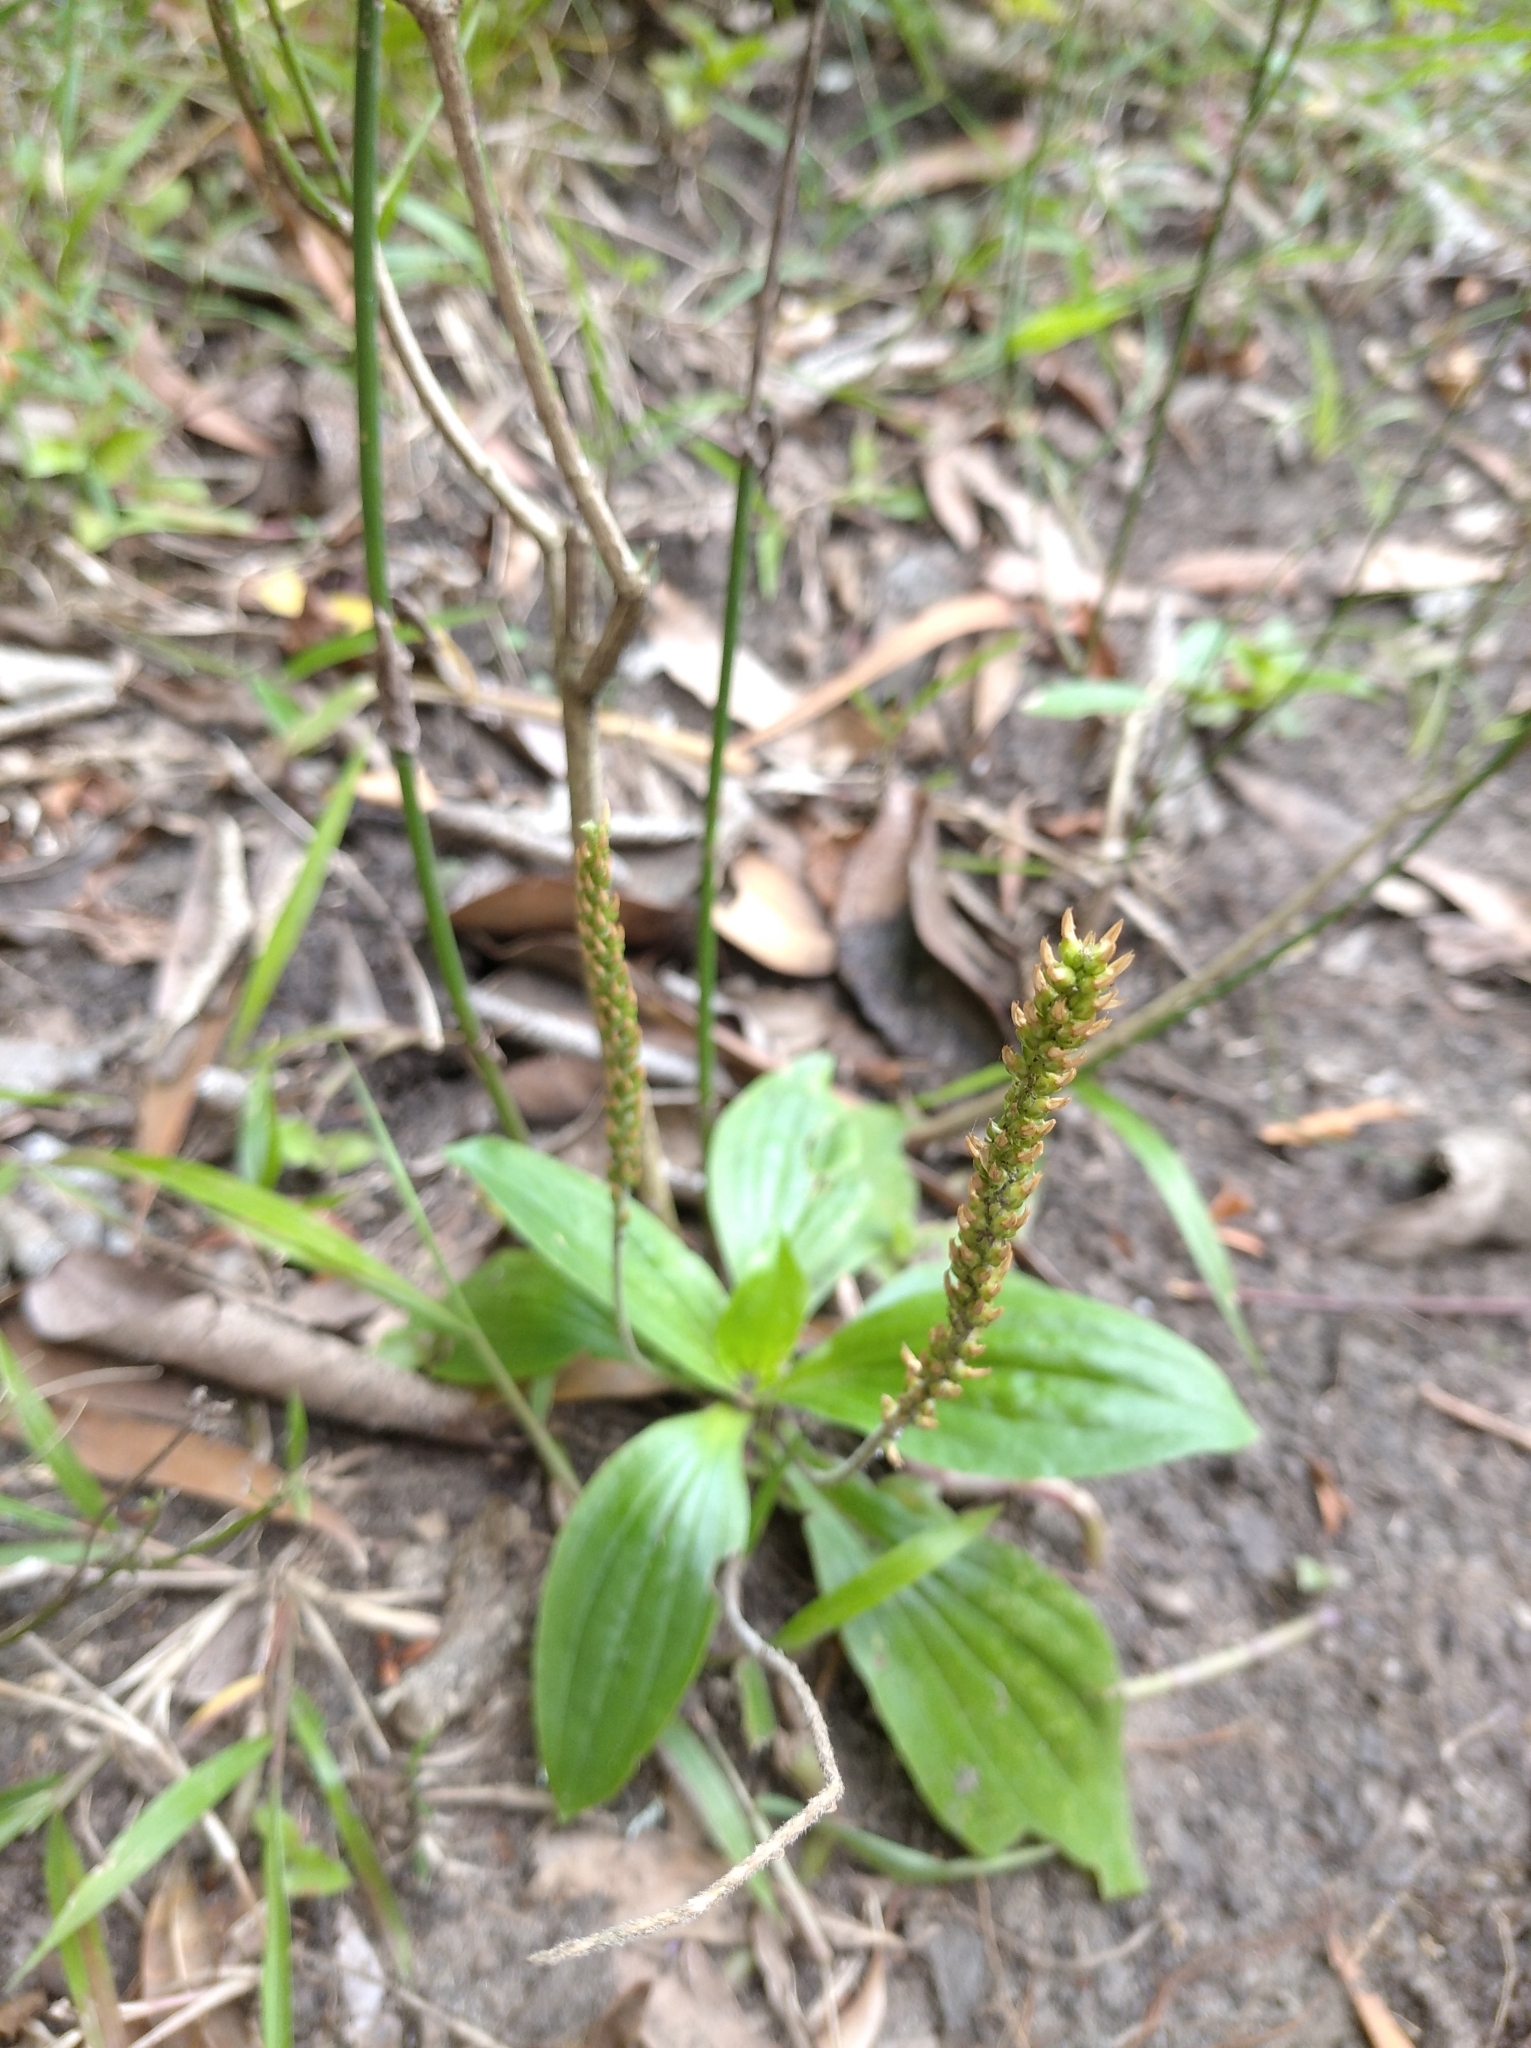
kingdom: Plantae
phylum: Tracheophyta
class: Magnoliopsida
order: Lamiales
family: Plantaginaceae
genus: Plantago
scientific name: Plantago australis
